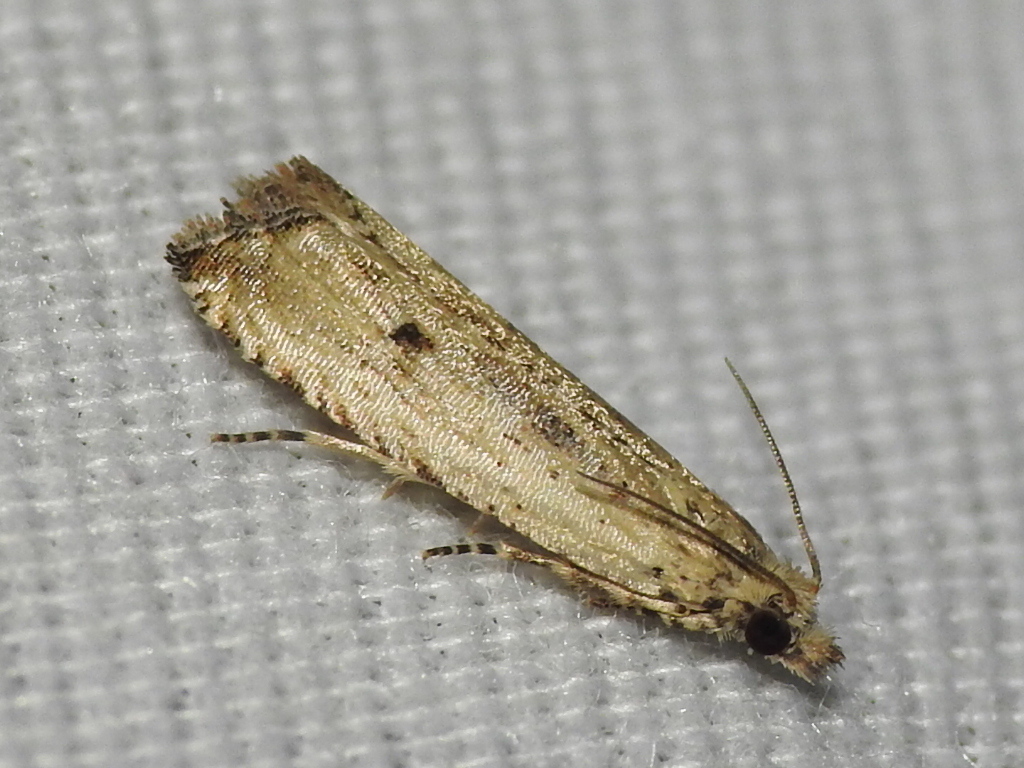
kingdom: Animalia
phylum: Arthropoda
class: Insecta
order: Lepidoptera
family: Tortricidae
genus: Bactra
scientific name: Bactra verutana
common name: Javelin moth
